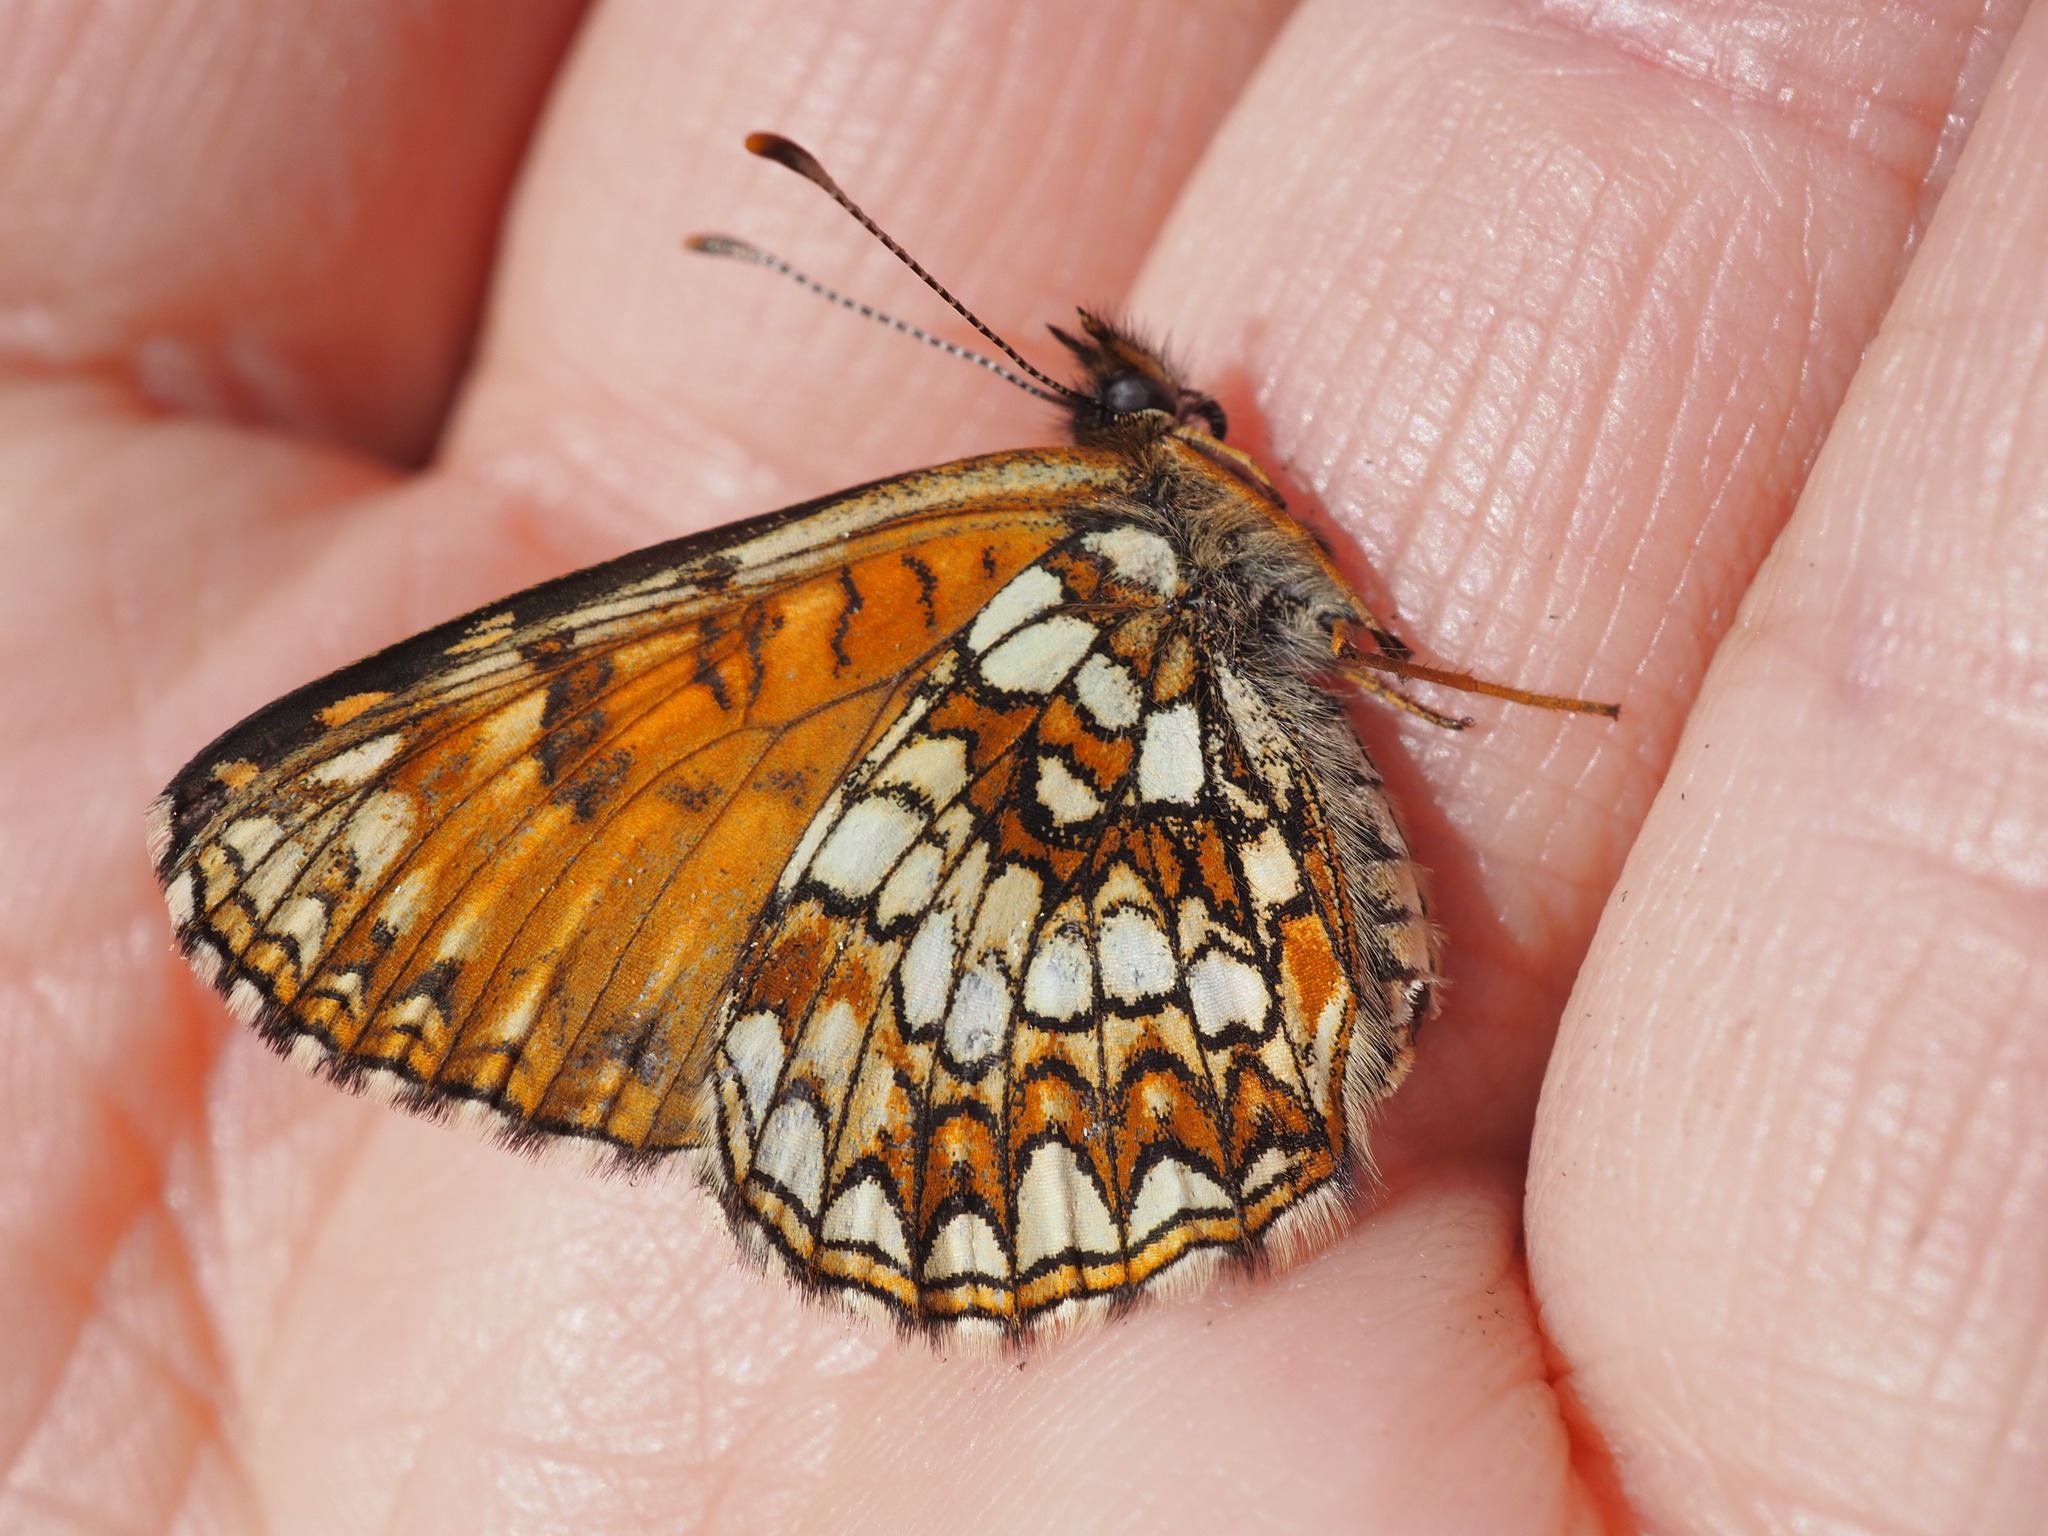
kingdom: Animalia
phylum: Arthropoda
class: Insecta
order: Lepidoptera
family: Nymphalidae
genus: Melitaea
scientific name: Melitaea diamina
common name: False heath fritillary
